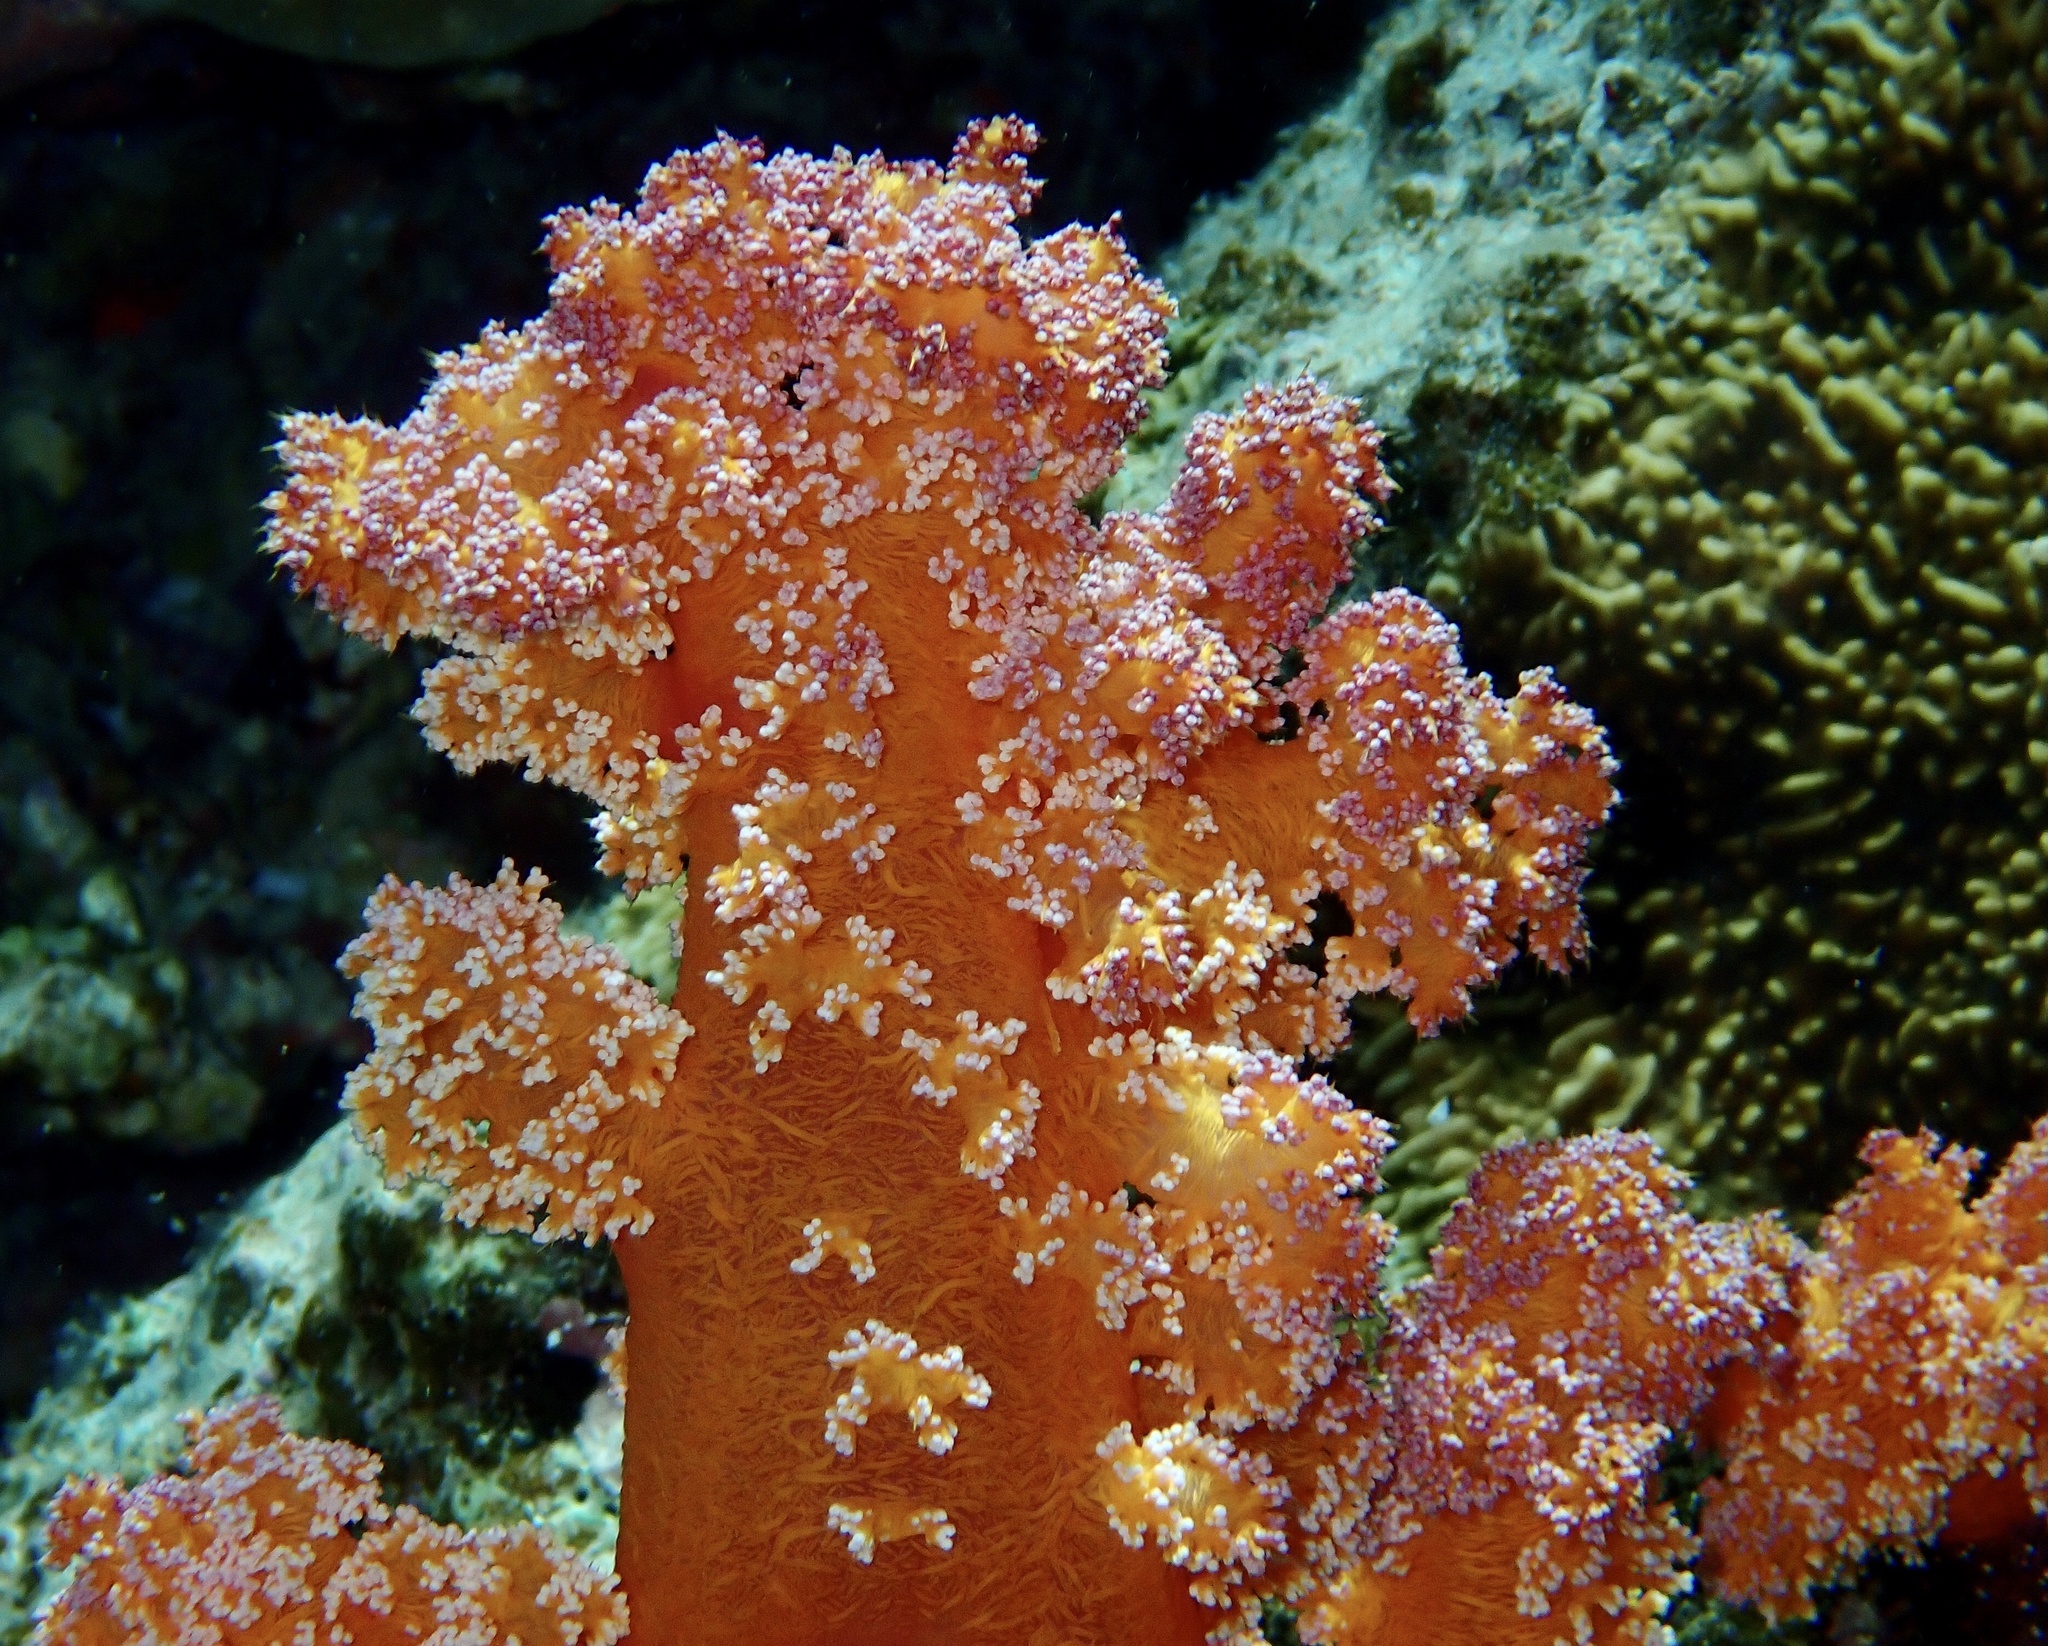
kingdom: Animalia
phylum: Cnidaria
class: Anthozoa
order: Malacalcyonacea
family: Nephtheidae
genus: Dendronephthya
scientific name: Dendronephthya hemprichi
